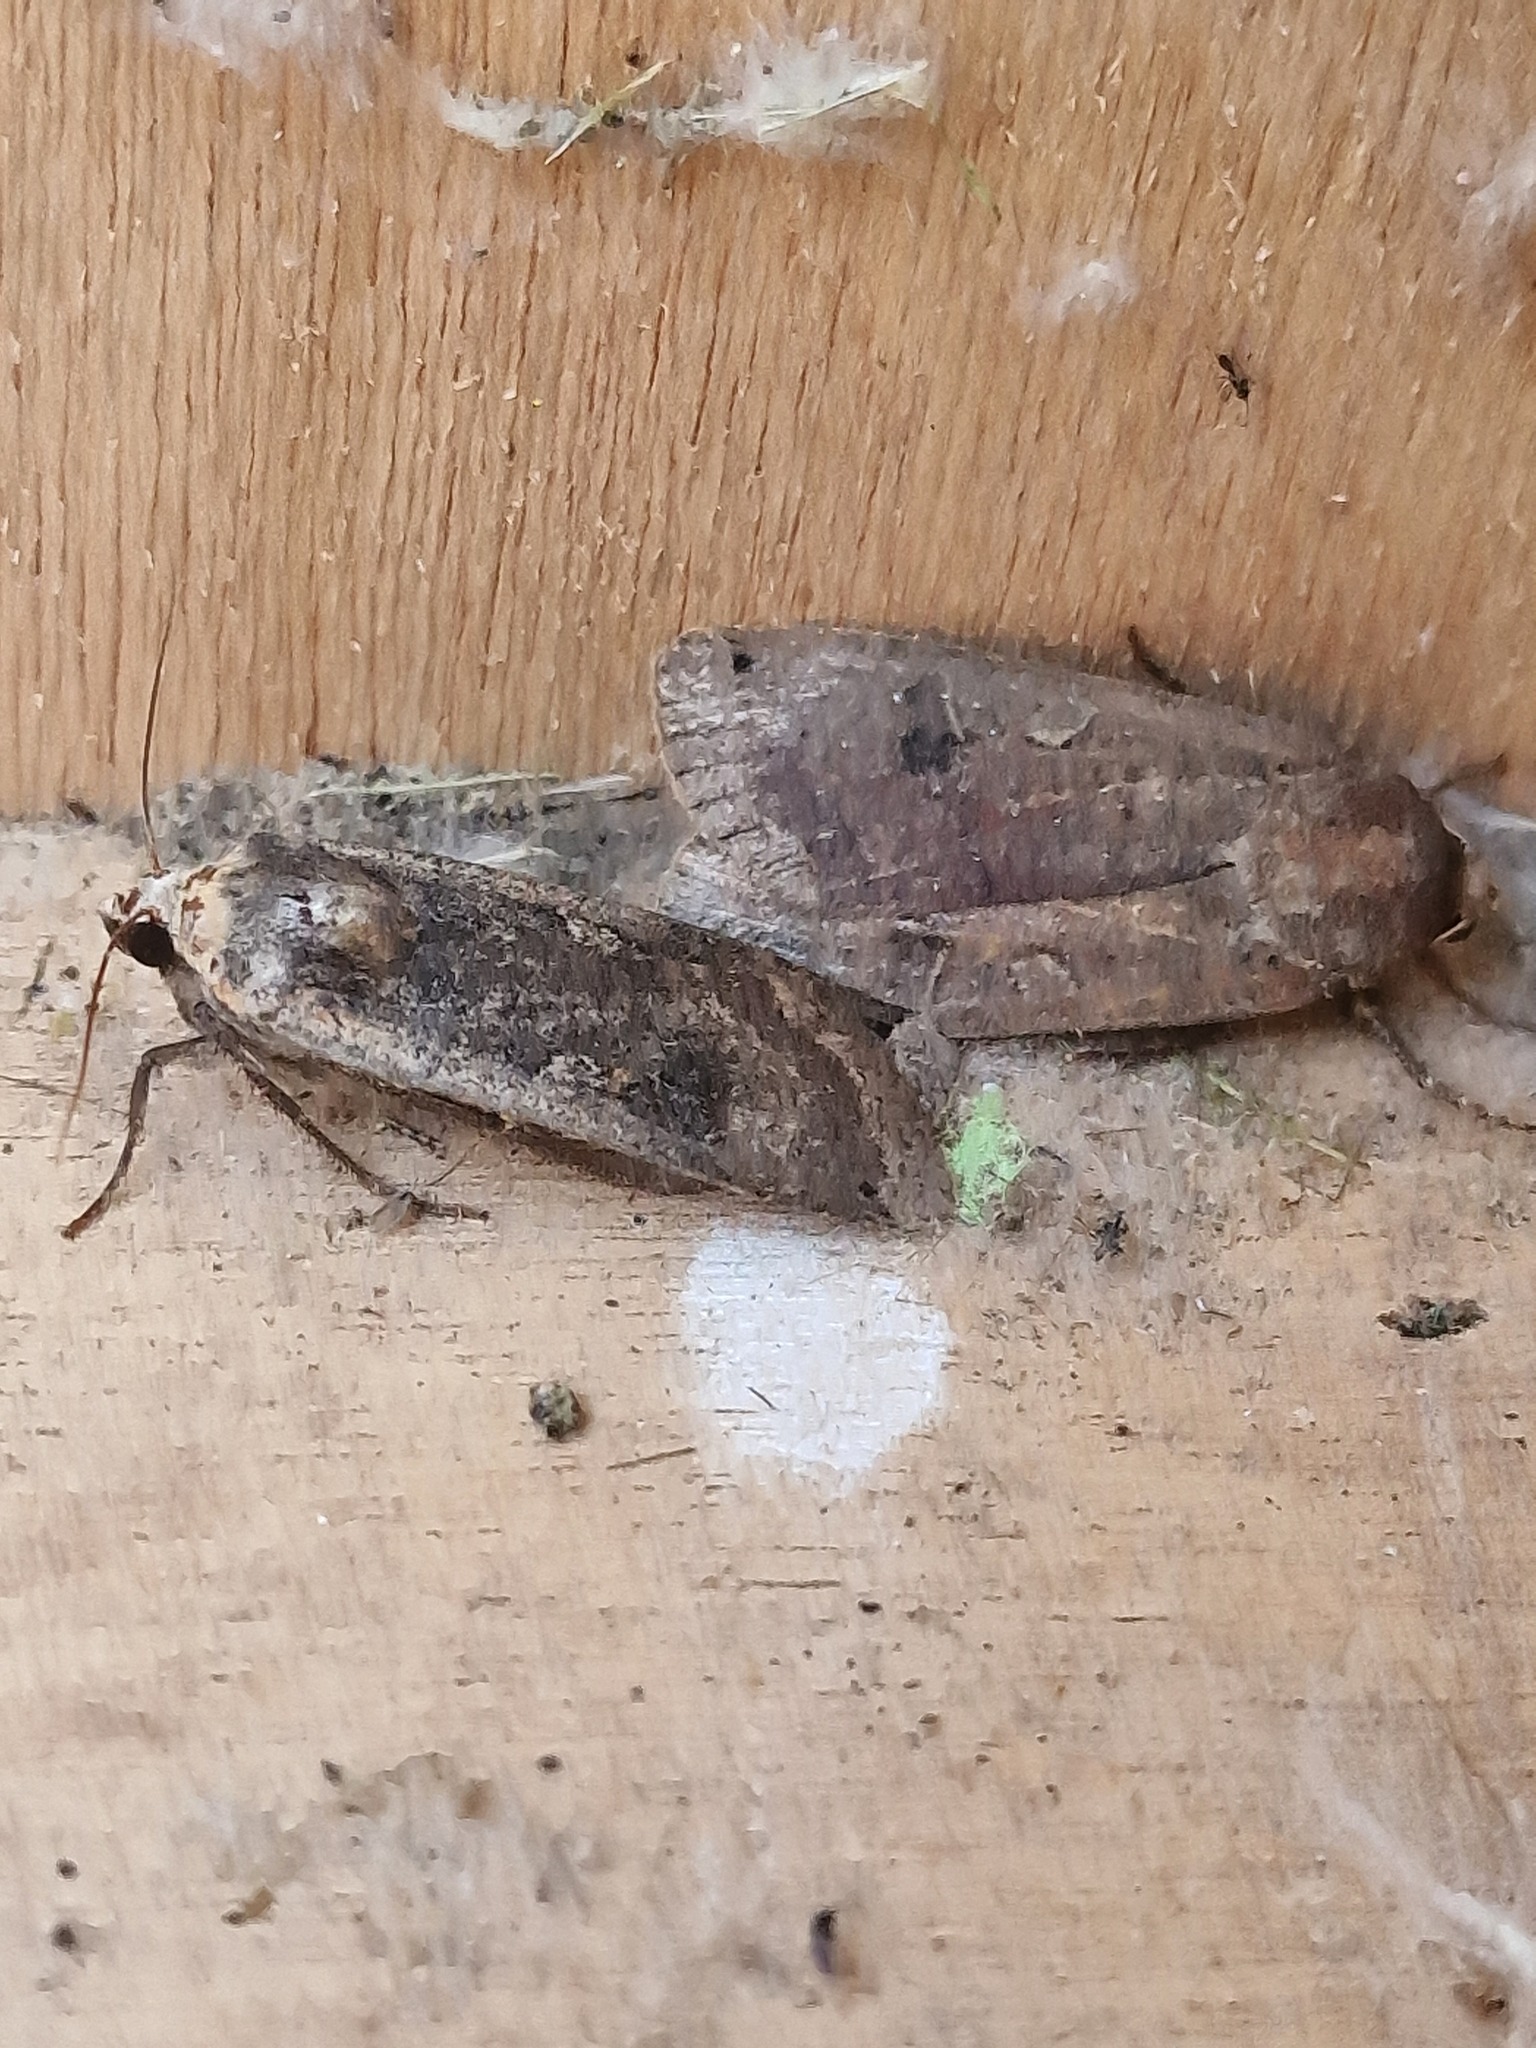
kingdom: Animalia
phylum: Arthropoda
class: Insecta
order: Lepidoptera
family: Noctuidae
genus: Noctua
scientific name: Noctua pronuba
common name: Large yellow underwing
